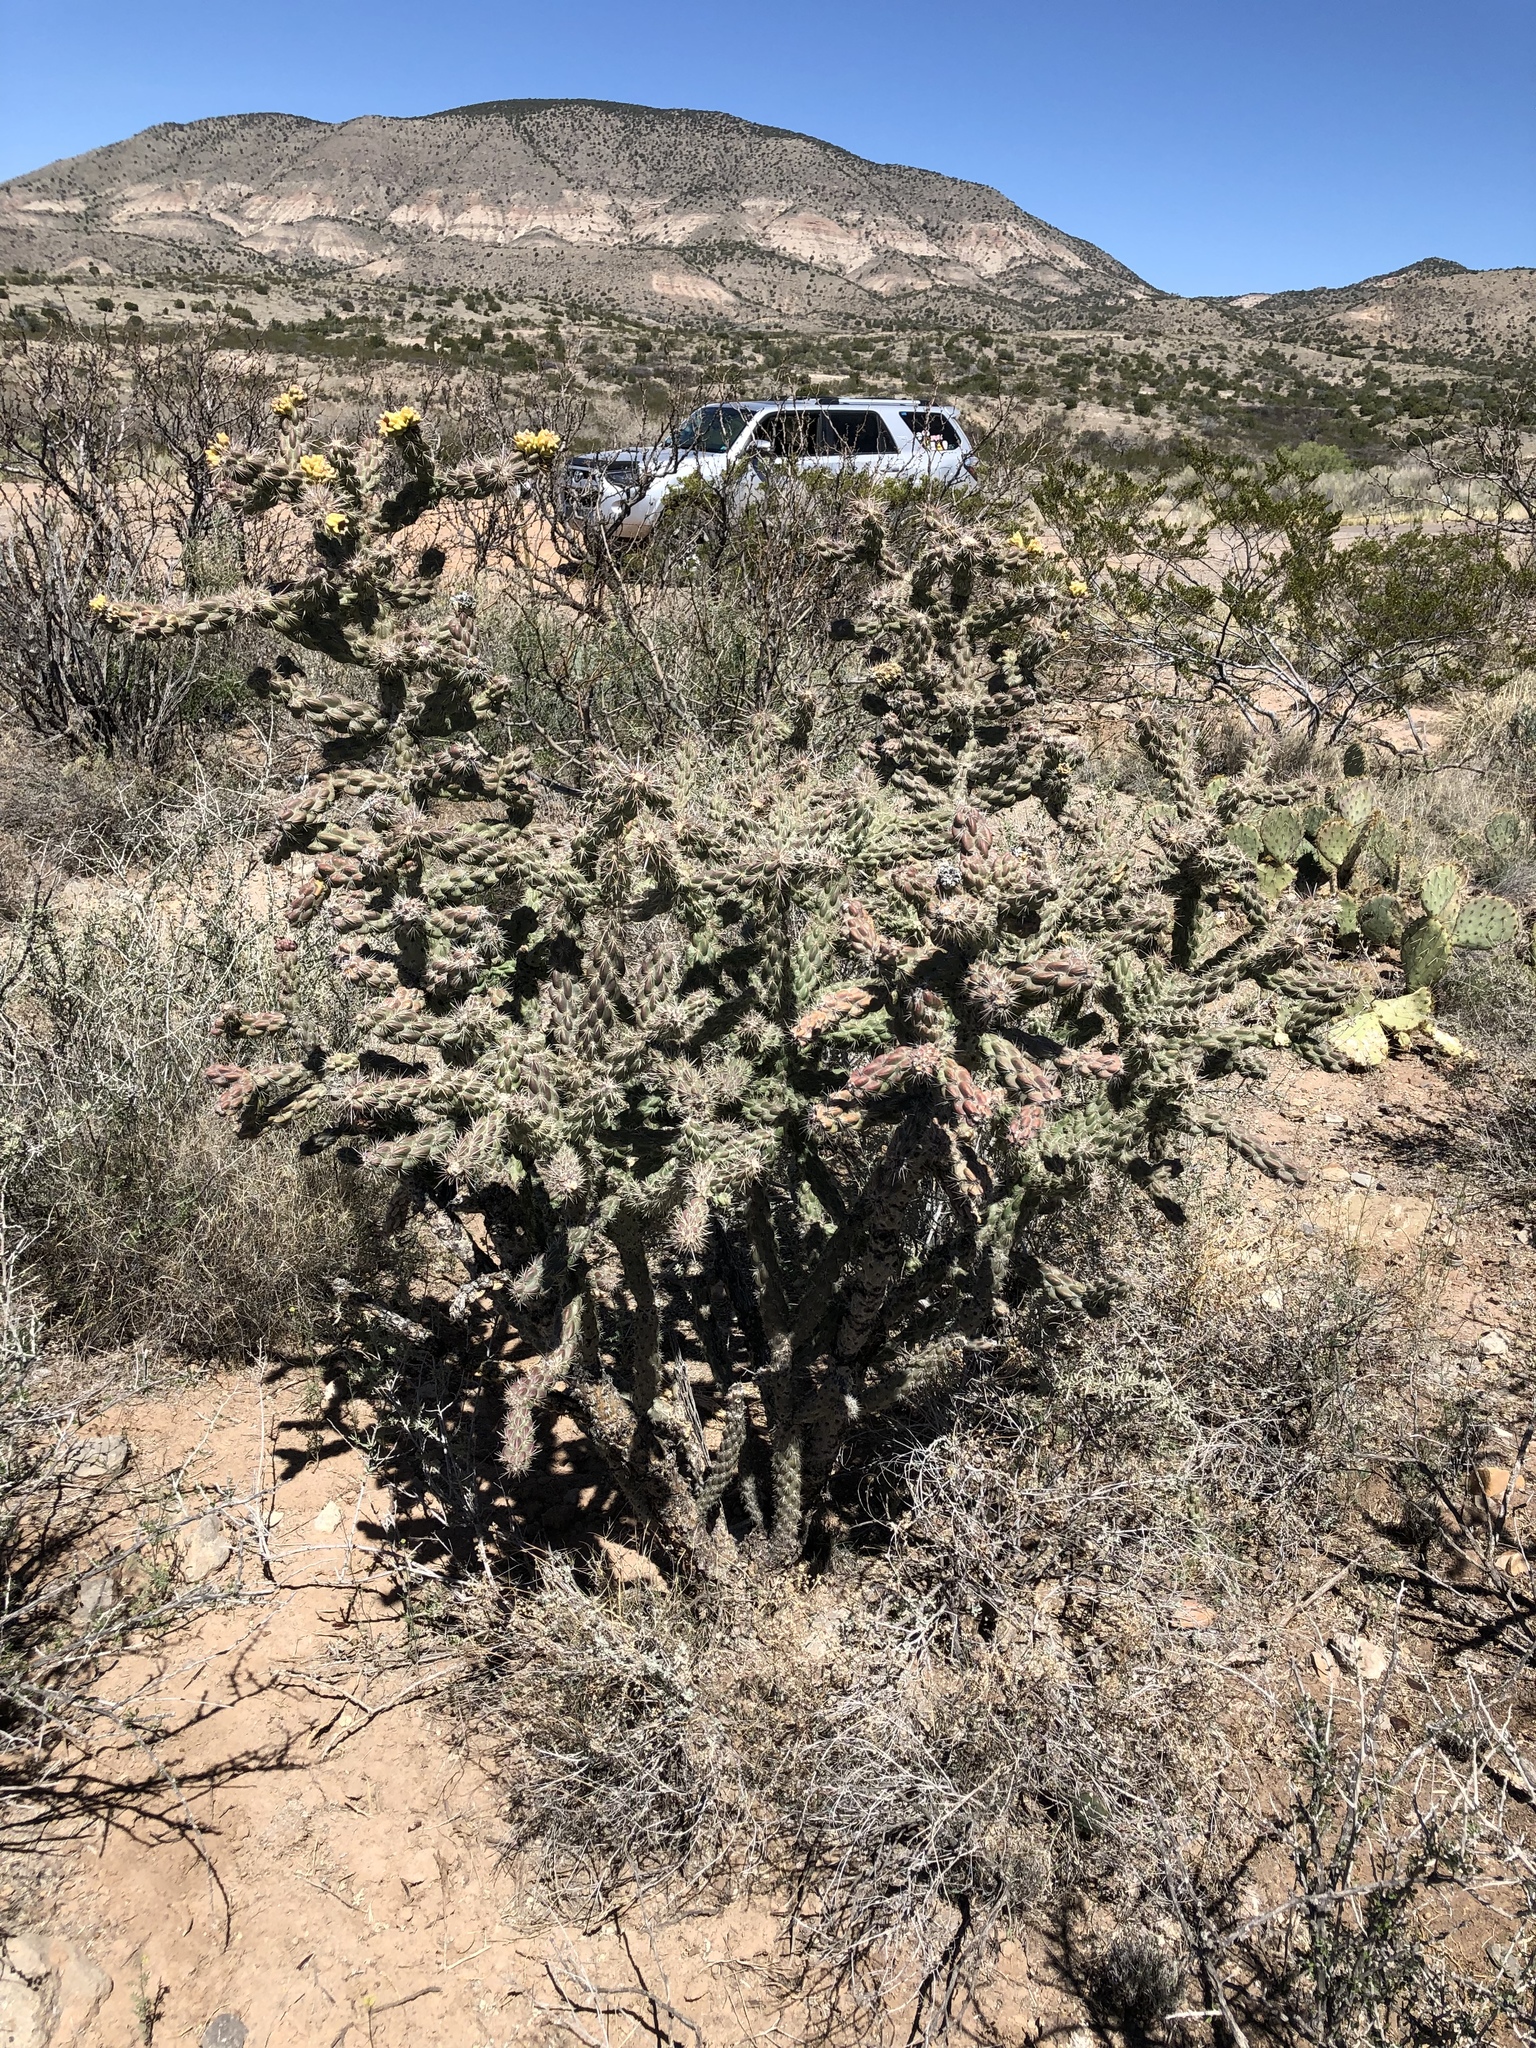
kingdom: Plantae
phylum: Tracheophyta
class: Magnoliopsida
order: Caryophyllales
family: Cactaceae
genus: Cylindropuntia
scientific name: Cylindropuntia imbricata
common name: Candelabrum cactus
